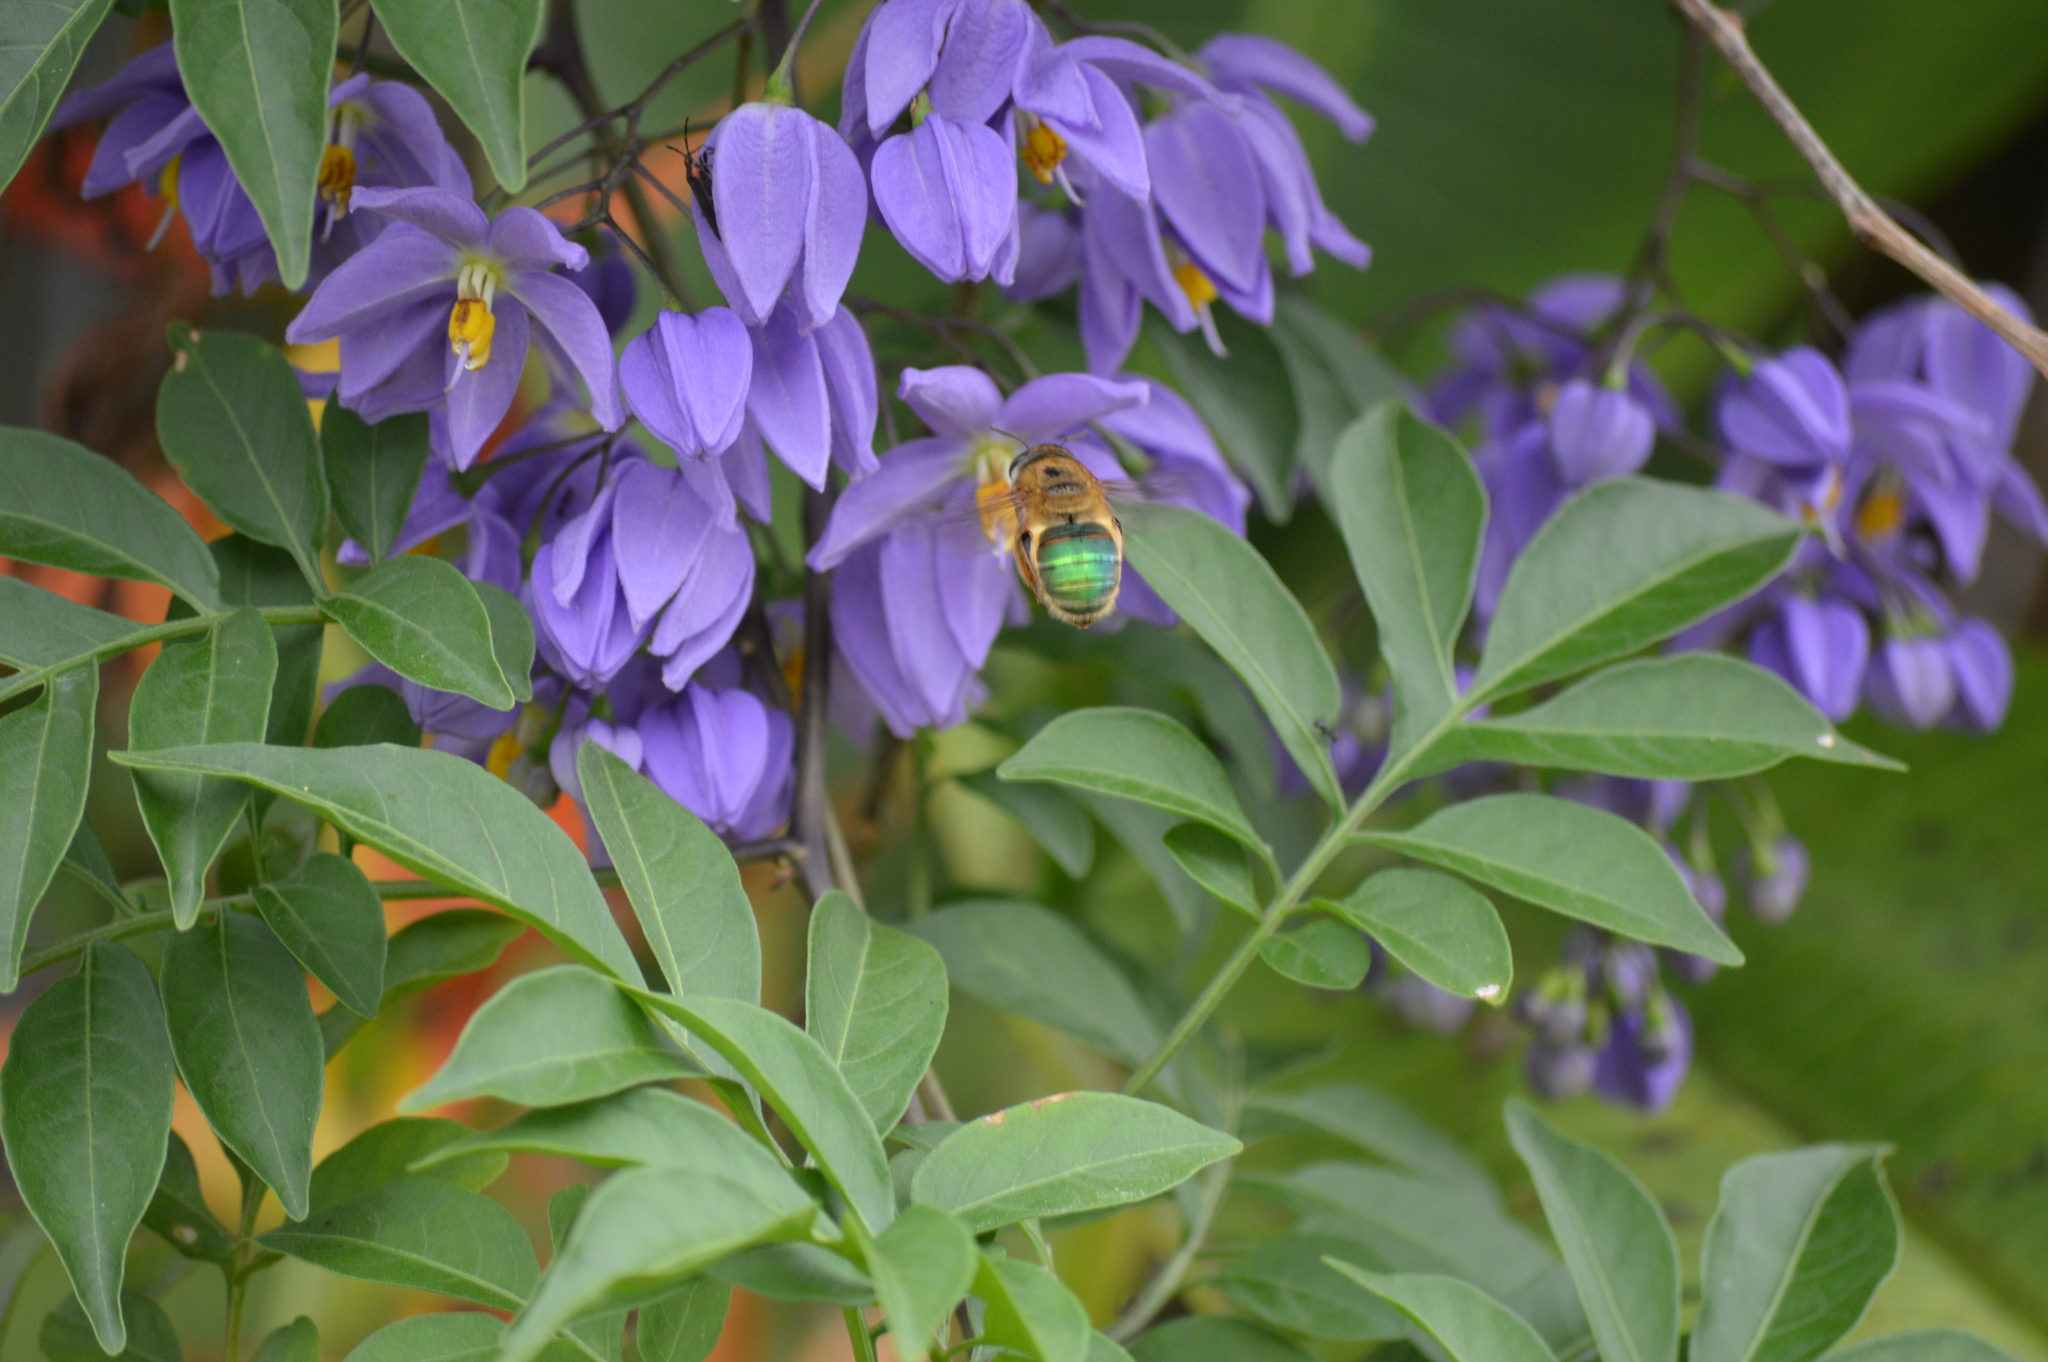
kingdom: Animalia
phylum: Arthropoda
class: Insecta
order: Hymenoptera
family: Andrenidae
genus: Oxaea
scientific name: Oxaea flavescens
